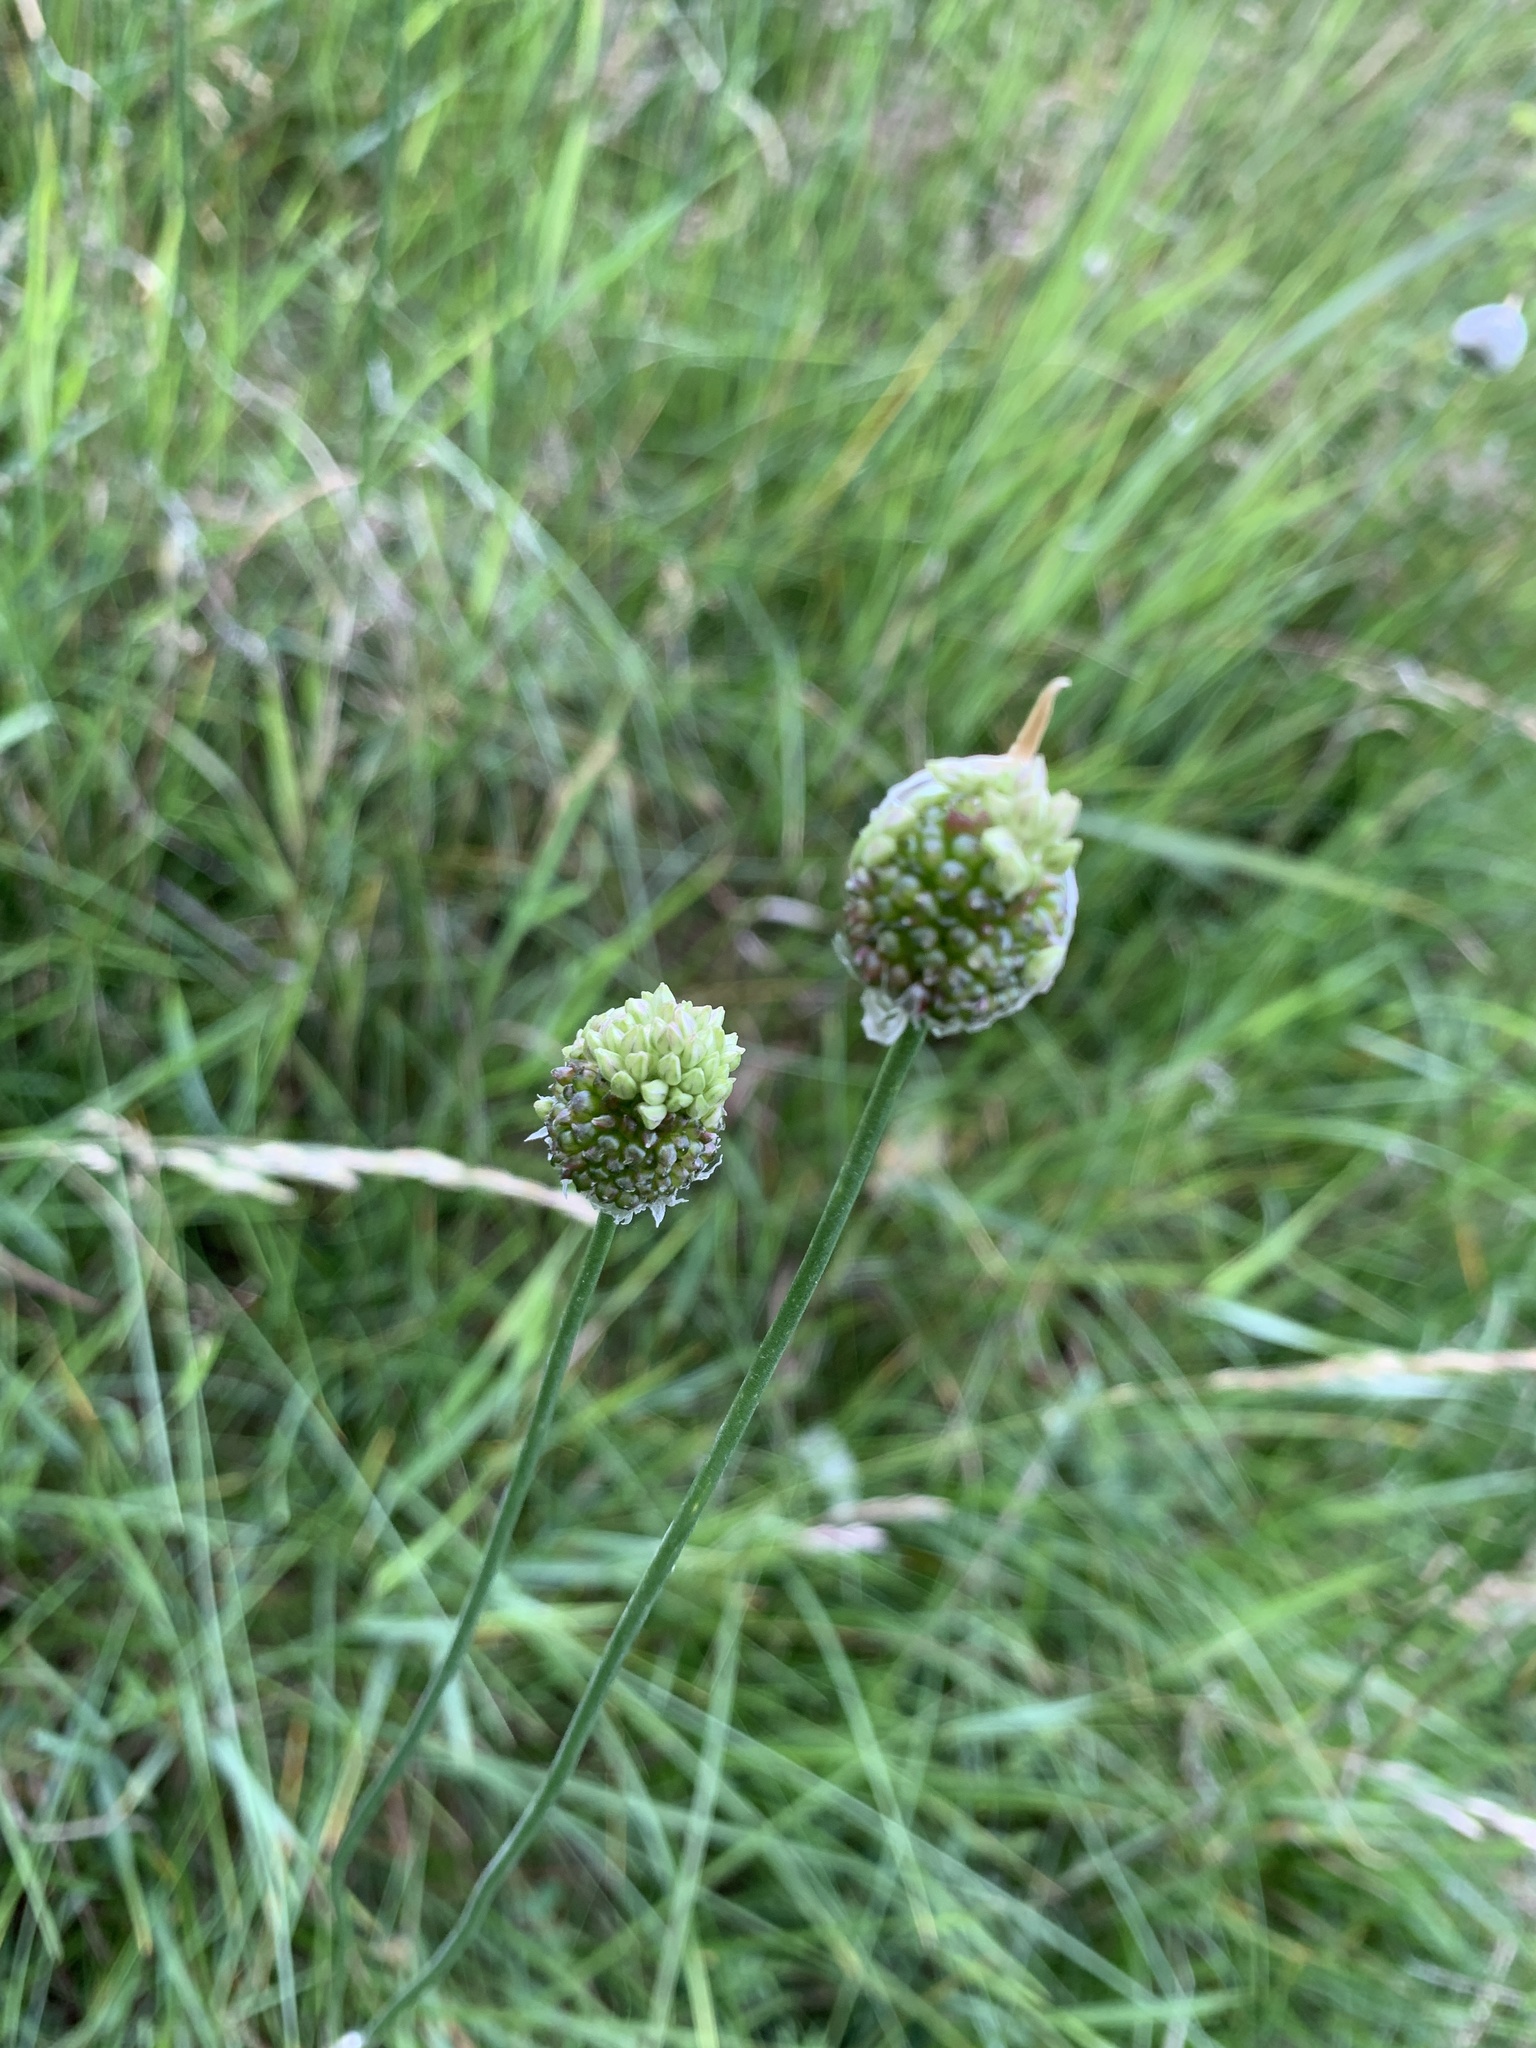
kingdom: Plantae
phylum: Tracheophyta
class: Liliopsida
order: Asparagales
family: Amaryllidaceae
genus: Allium
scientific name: Allium vineale
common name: Crow garlic
